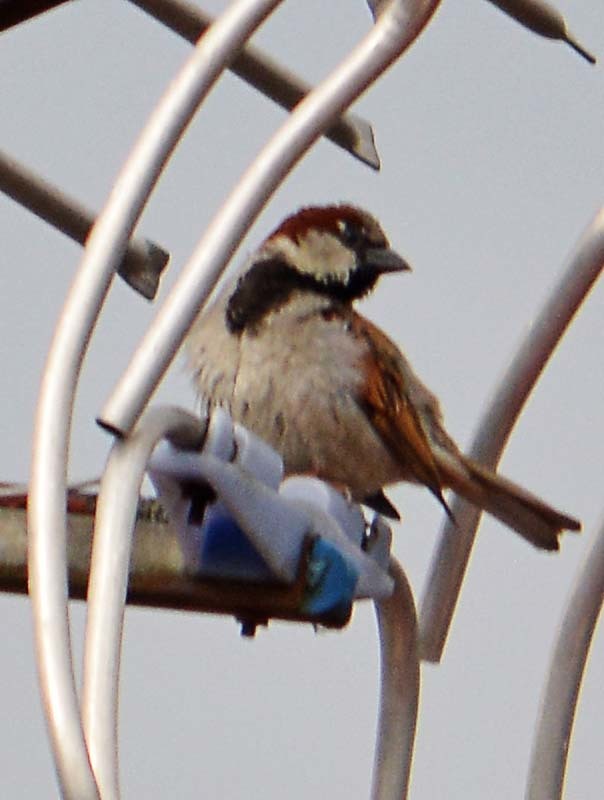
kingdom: Animalia
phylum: Chordata
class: Aves
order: Passeriformes
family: Passeridae
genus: Passer
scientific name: Passer domesticus
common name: House sparrow
